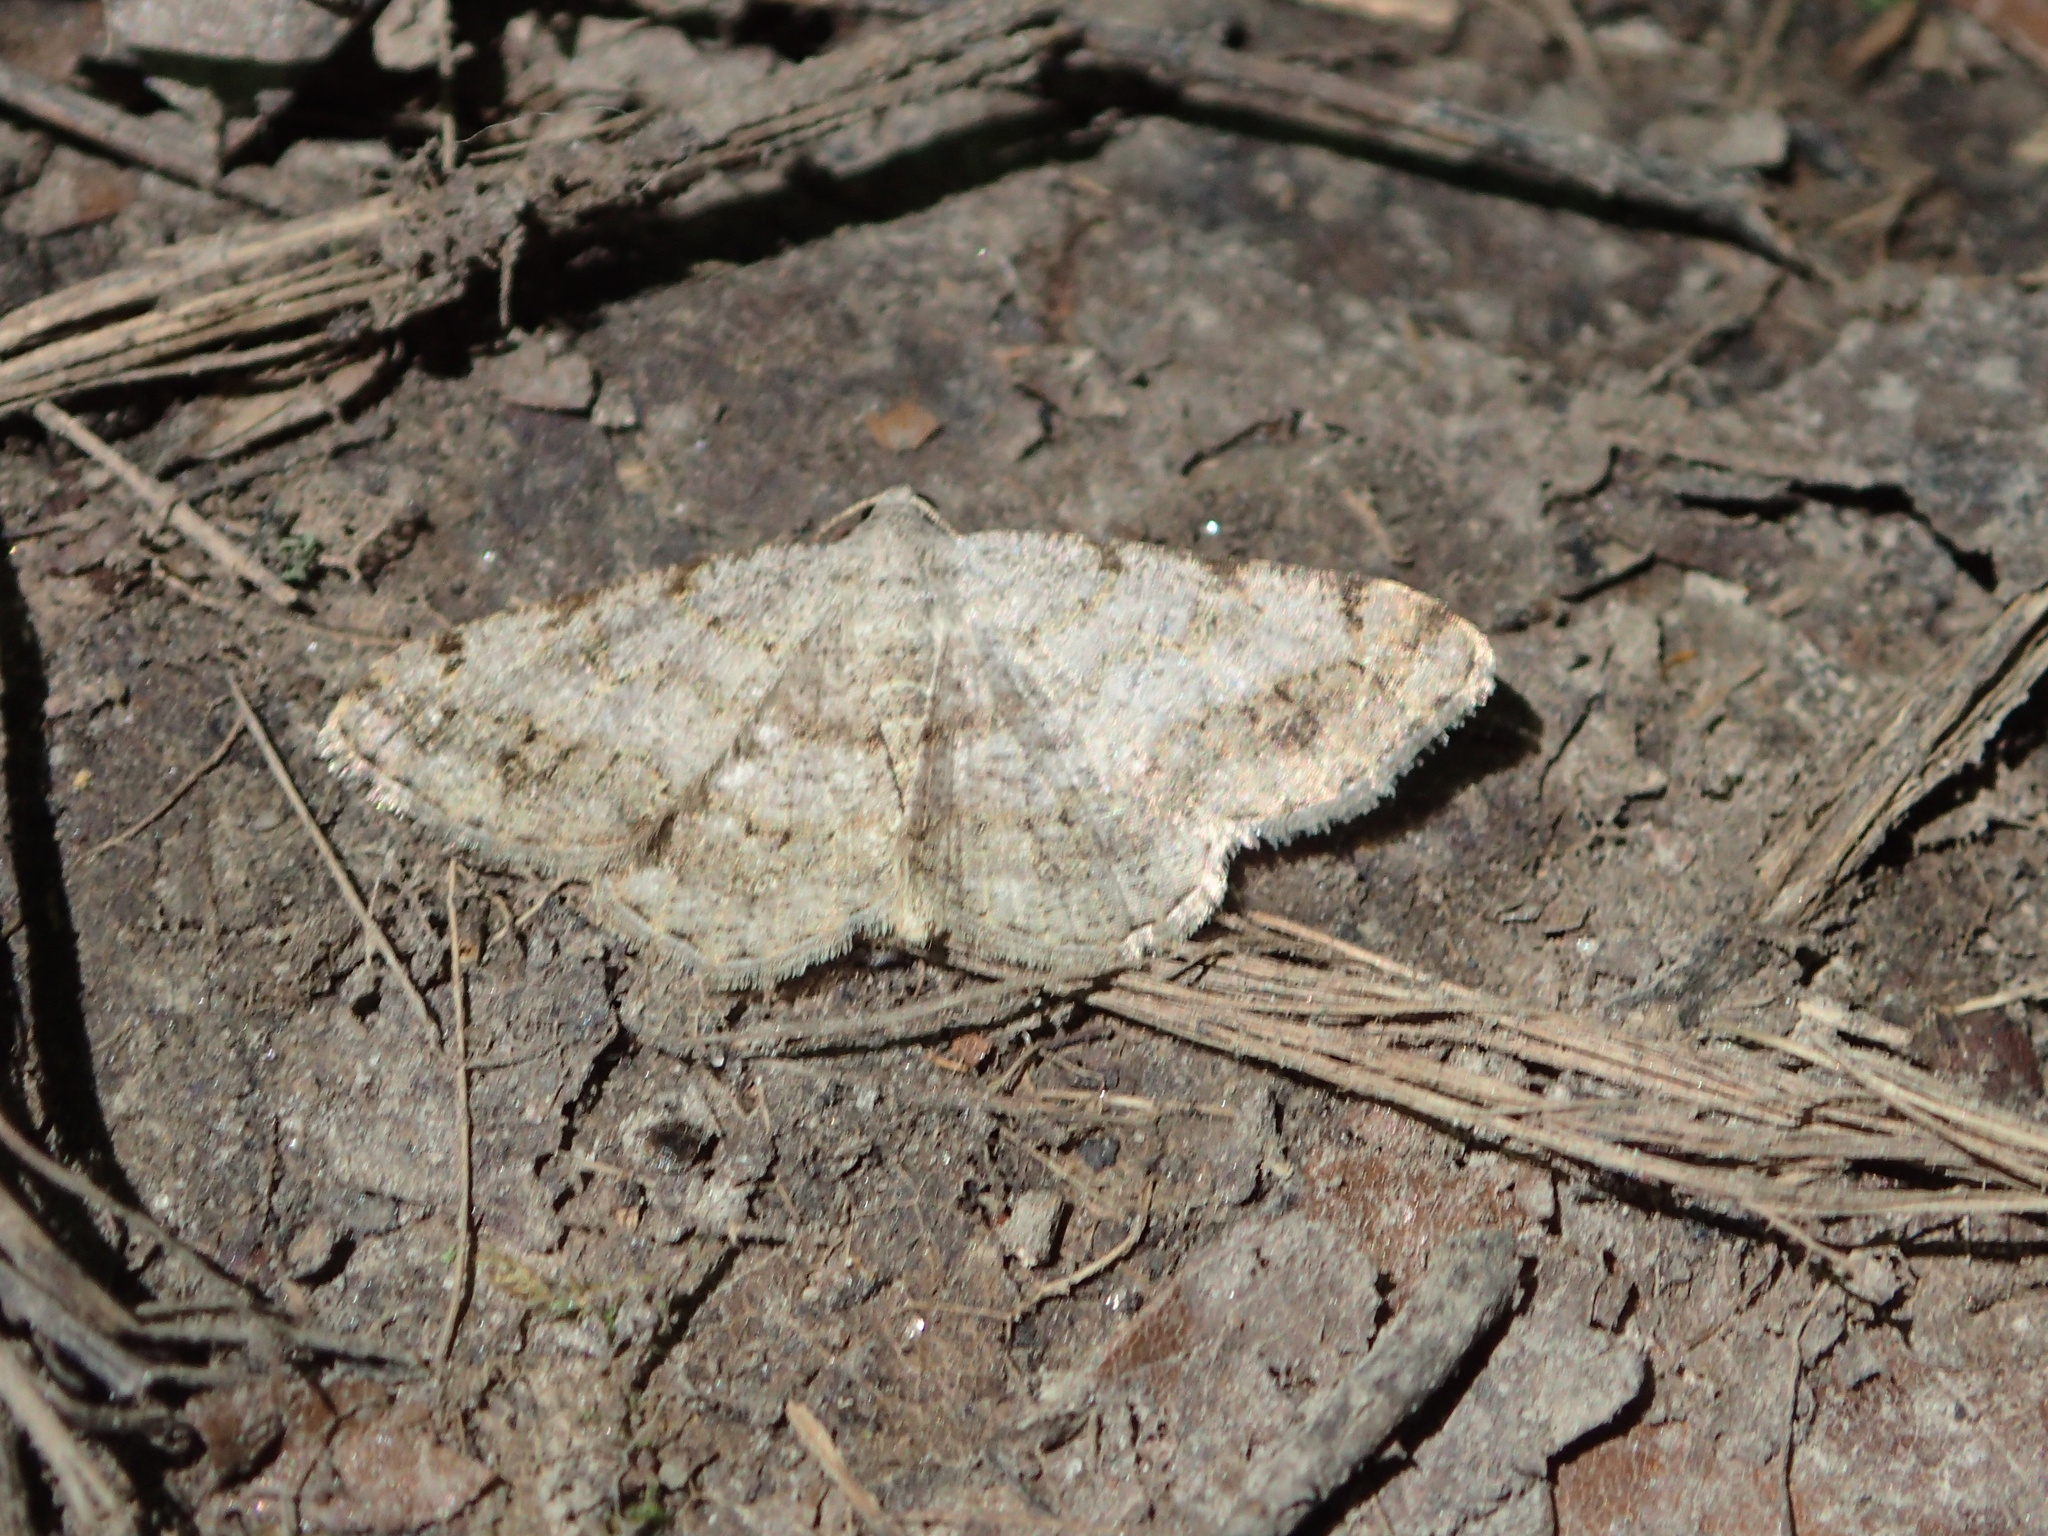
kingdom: Animalia
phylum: Arthropoda
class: Insecta
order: Lepidoptera
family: Geometridae
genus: Digrammia
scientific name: Digrammia ocellinata
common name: Faint-spotted angle
